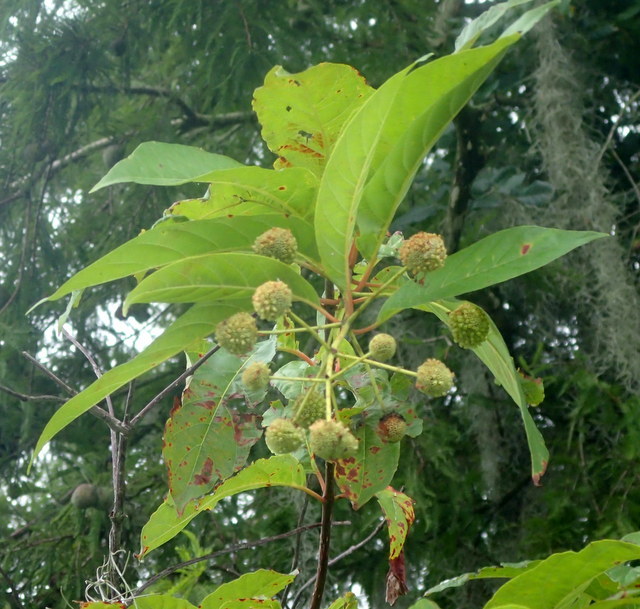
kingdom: Plantae
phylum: Tracheophyta
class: Magnoliopsida
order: Gentianales
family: Rubiaceae
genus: Cephalanthus
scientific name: Cephalanthus occidentalis
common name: Button-willow
